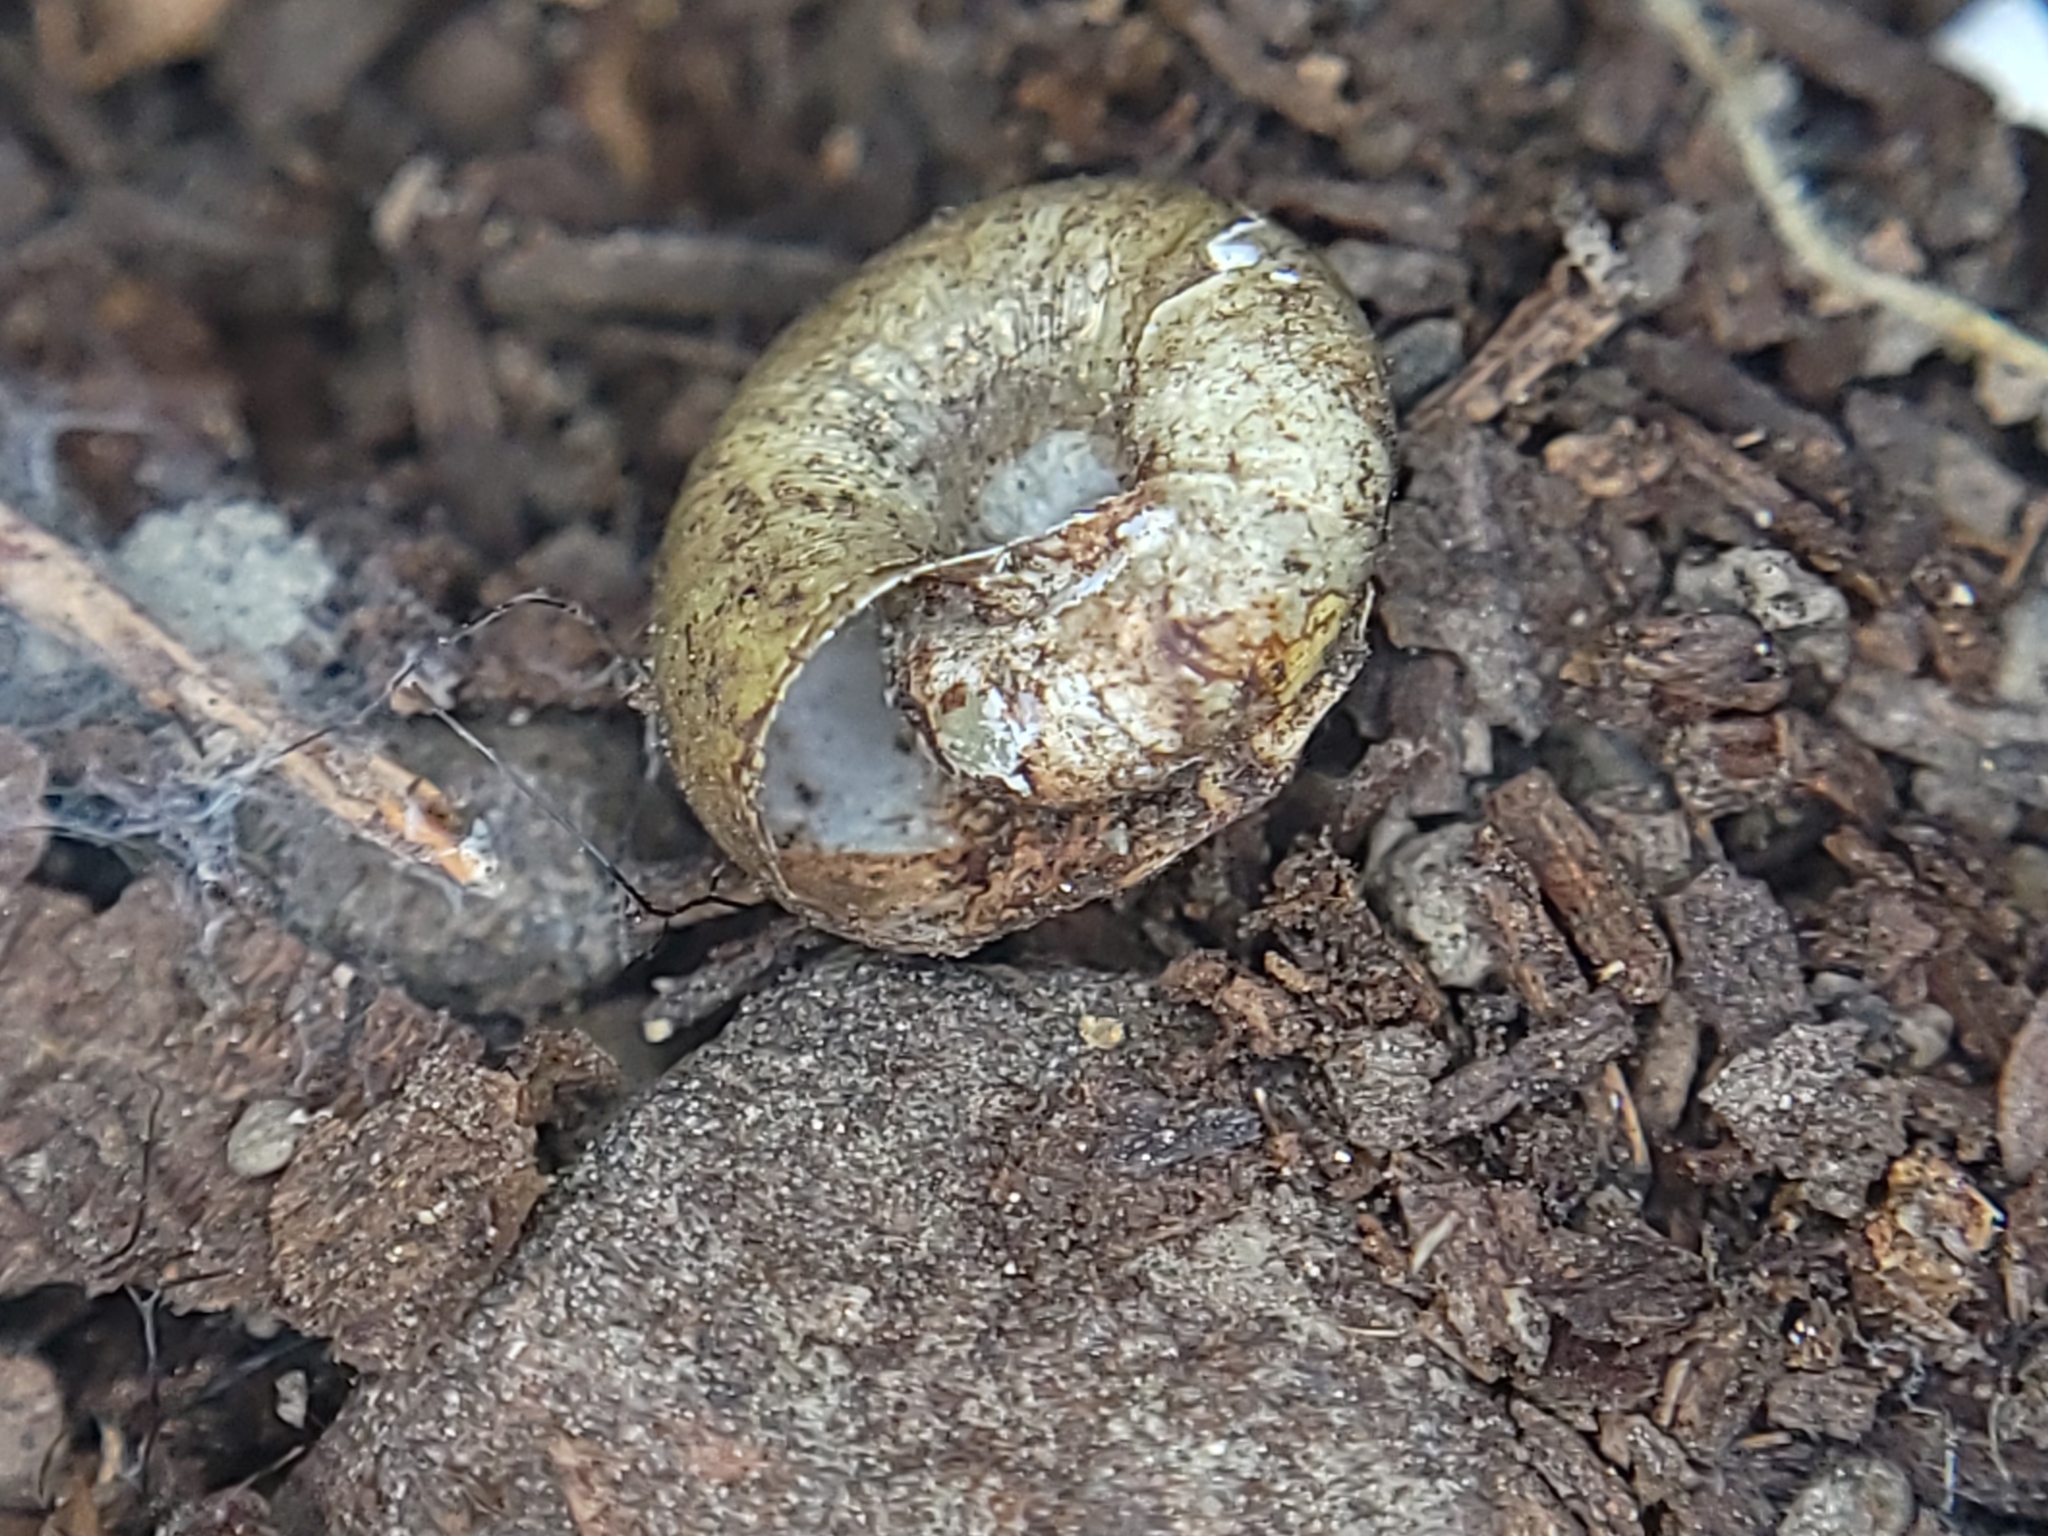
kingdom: Animalia
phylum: Mollusca
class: Gastropoda
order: Stylommatophora
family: Haplotrematidae
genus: Haplotrema
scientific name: Haplotrema minimum
